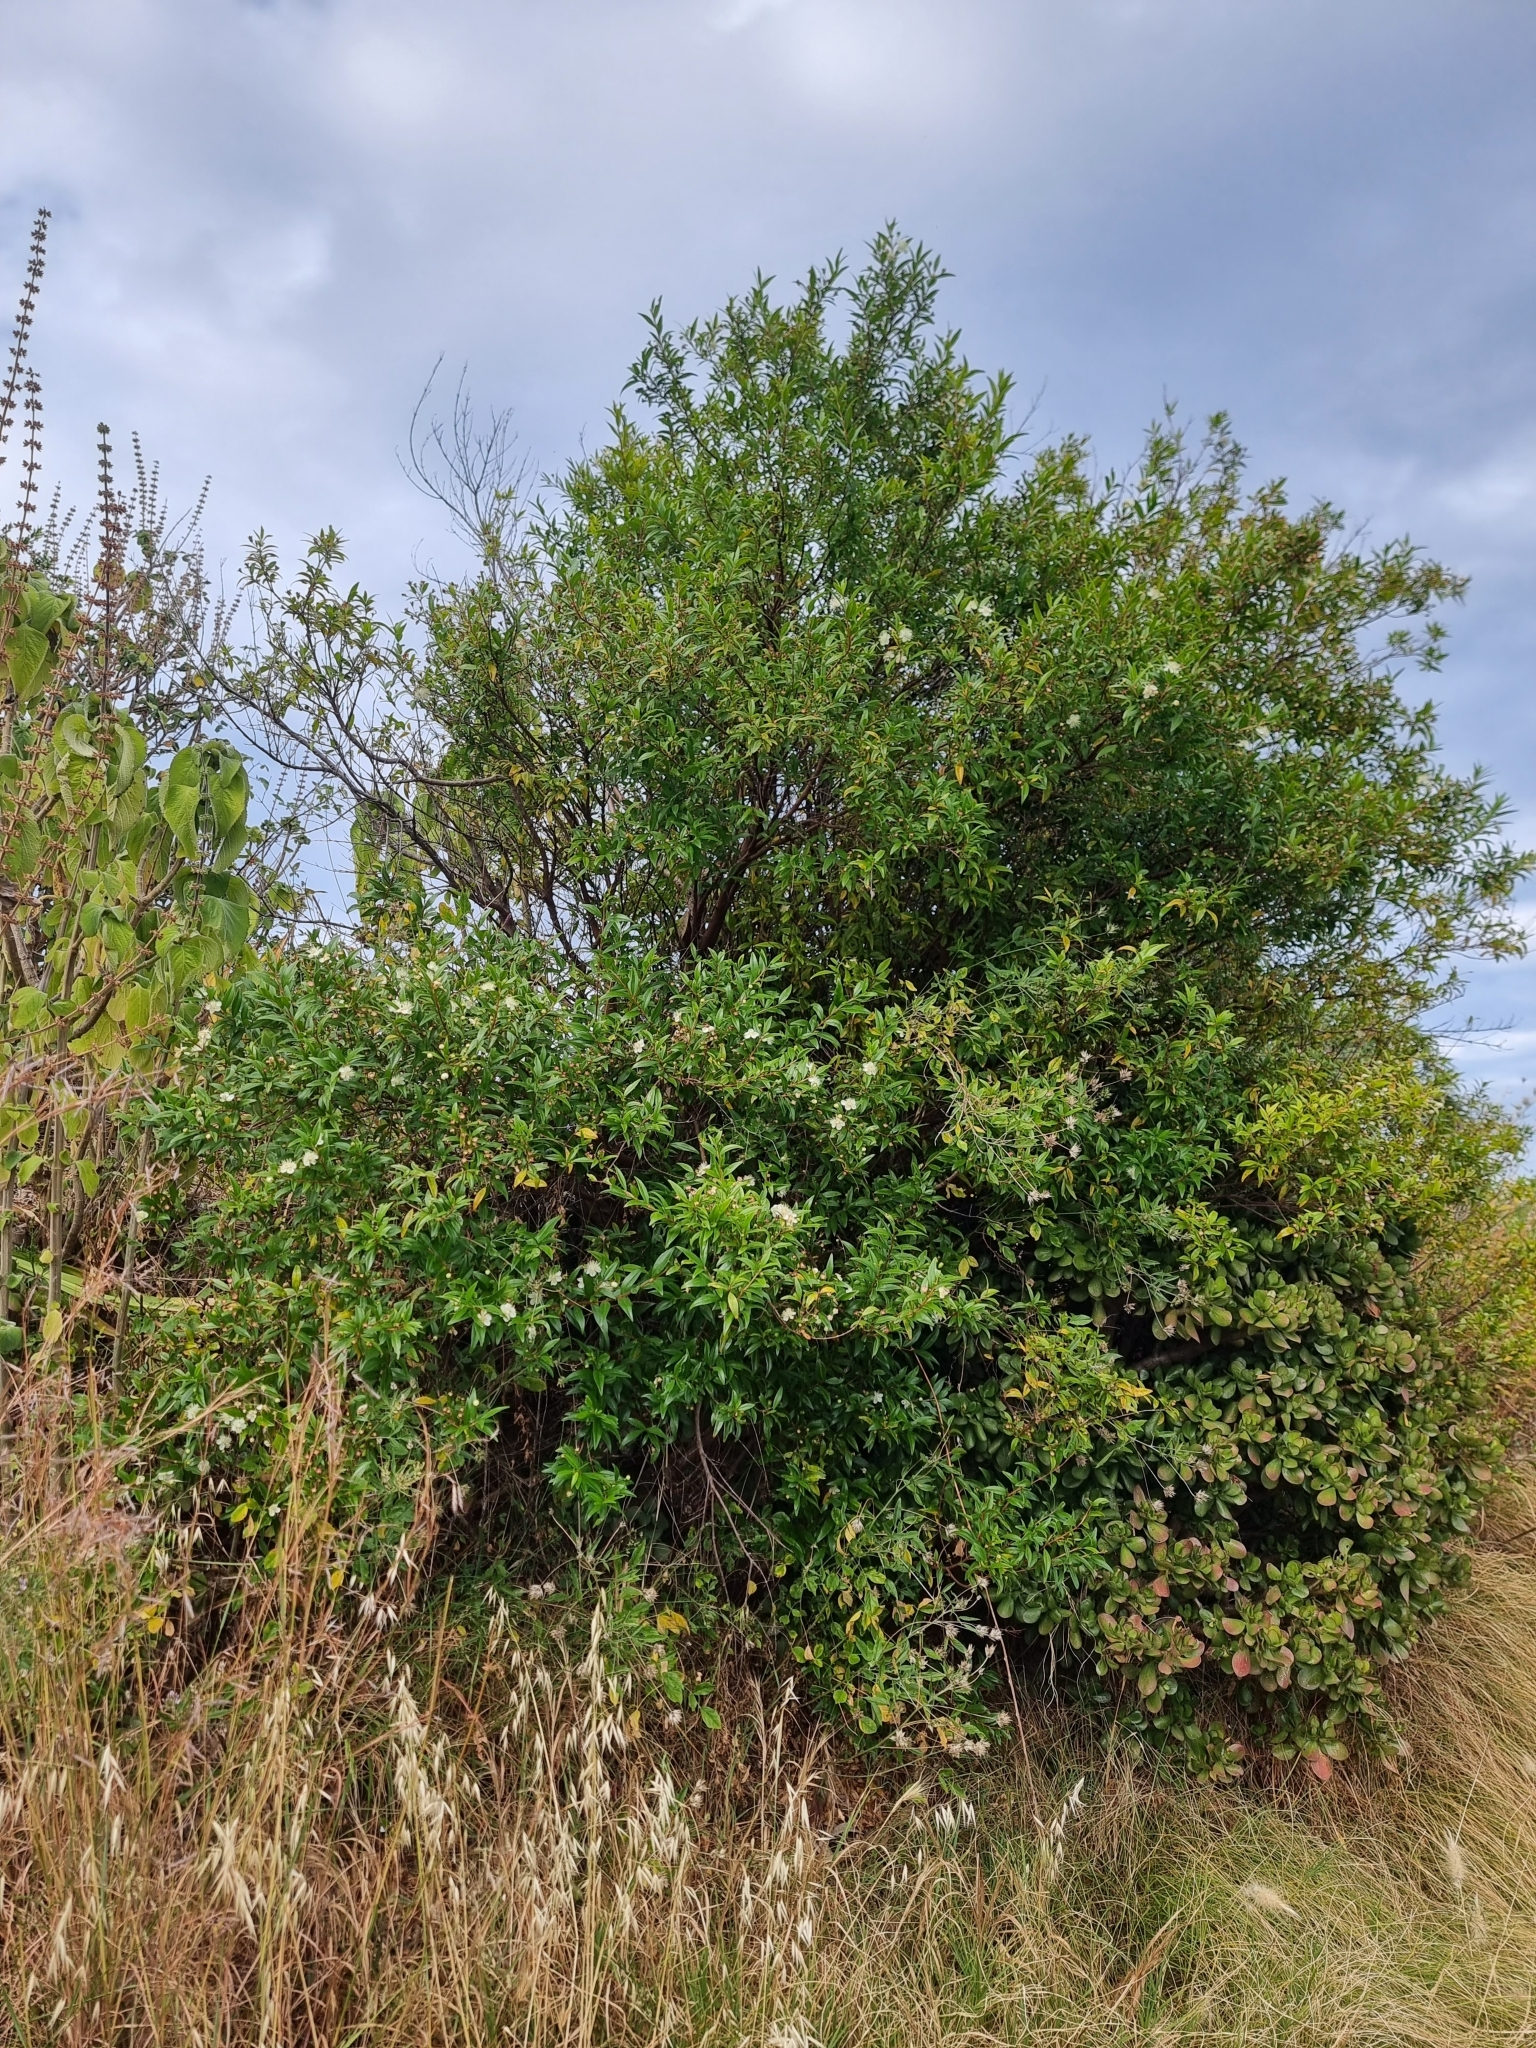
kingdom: Plantae
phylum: Tracheophyta
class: Magnoliopsida
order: Myrtales
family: Myrtaceae
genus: Myrtus
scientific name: Myrtus communis
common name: Myrtle
